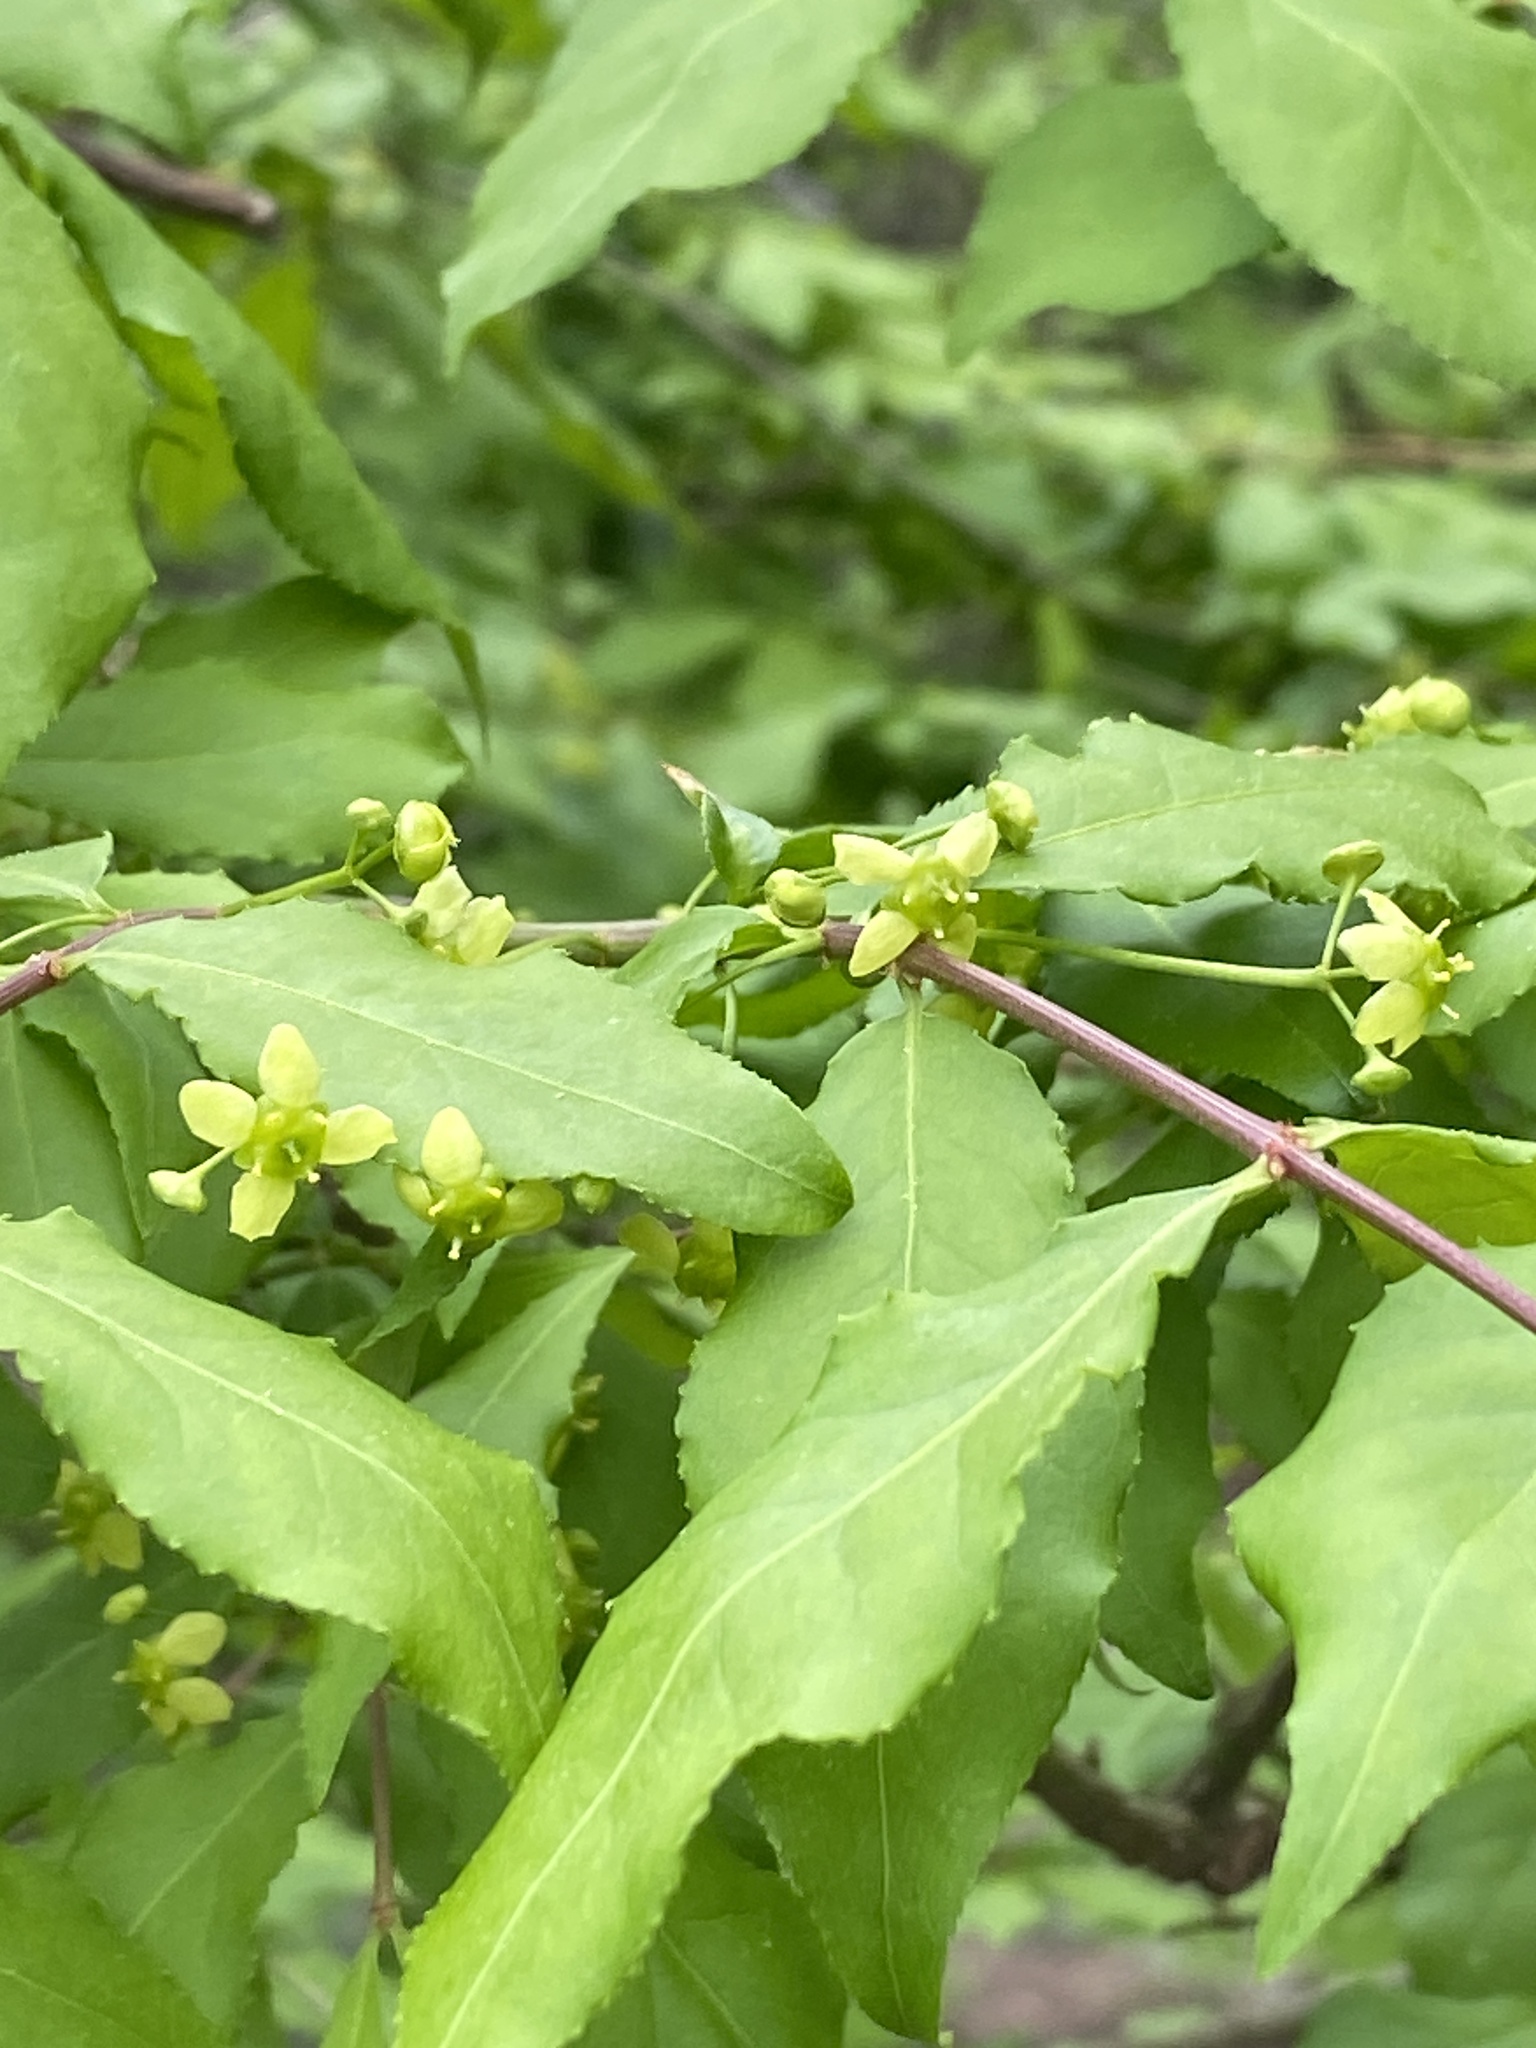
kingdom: Plantae
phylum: Tracheophyta
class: Magnoliopsida
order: Celastrales
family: Celastraceae
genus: Euonymus
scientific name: Euonymus alatus
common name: Winged euonymus
